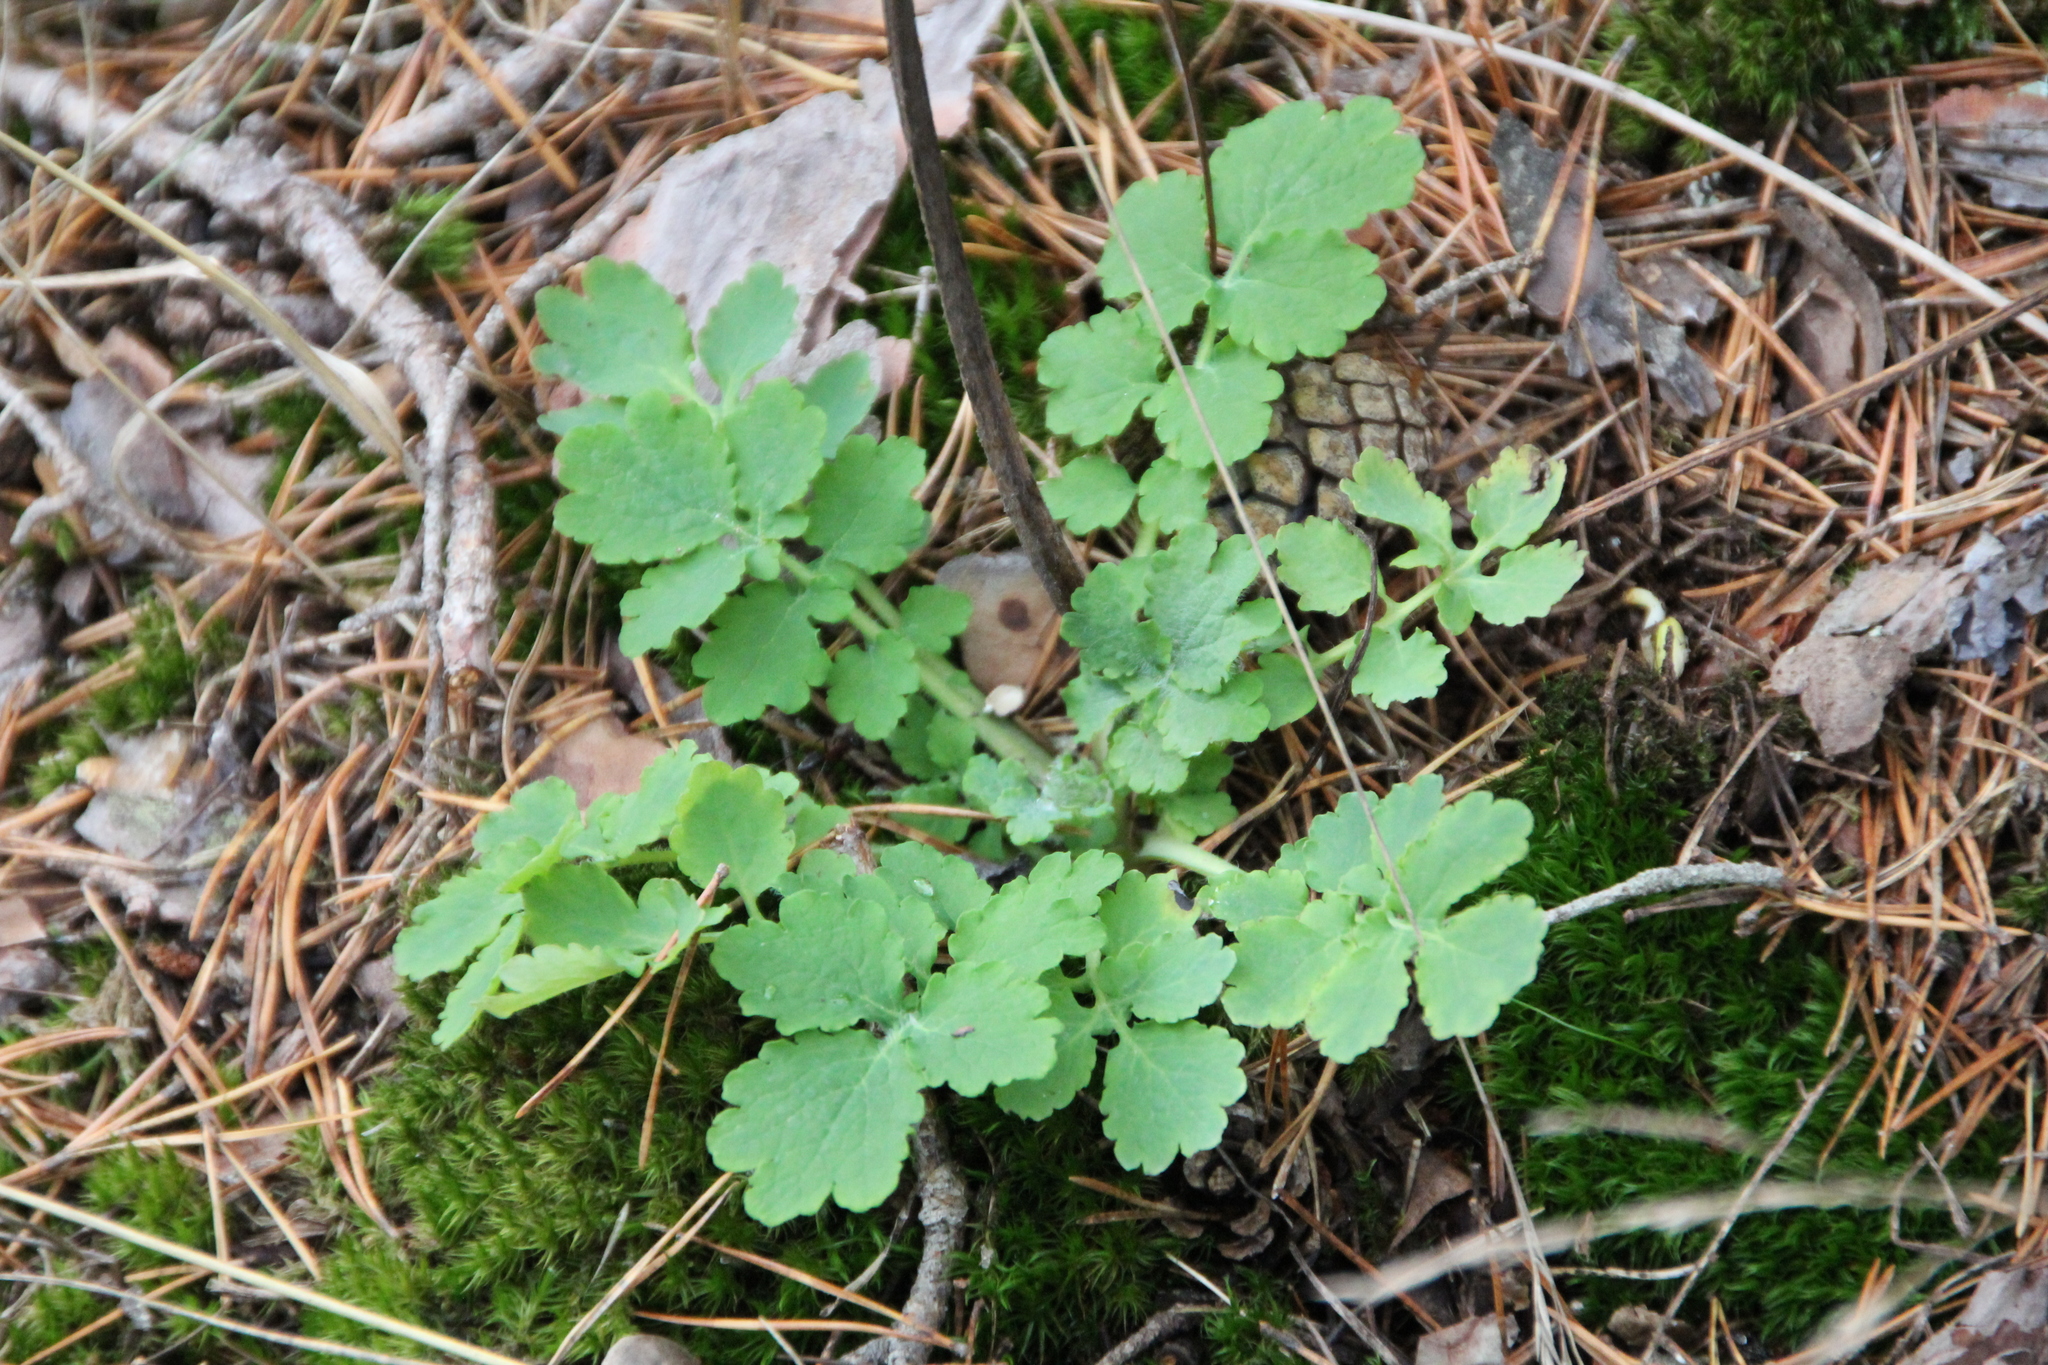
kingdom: Plantae
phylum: Tracheophyta
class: Magnoliopsida
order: Ranunculales
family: Papaveraceae
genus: Chelidonium
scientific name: Chelidonium majus
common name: Greater celandine
